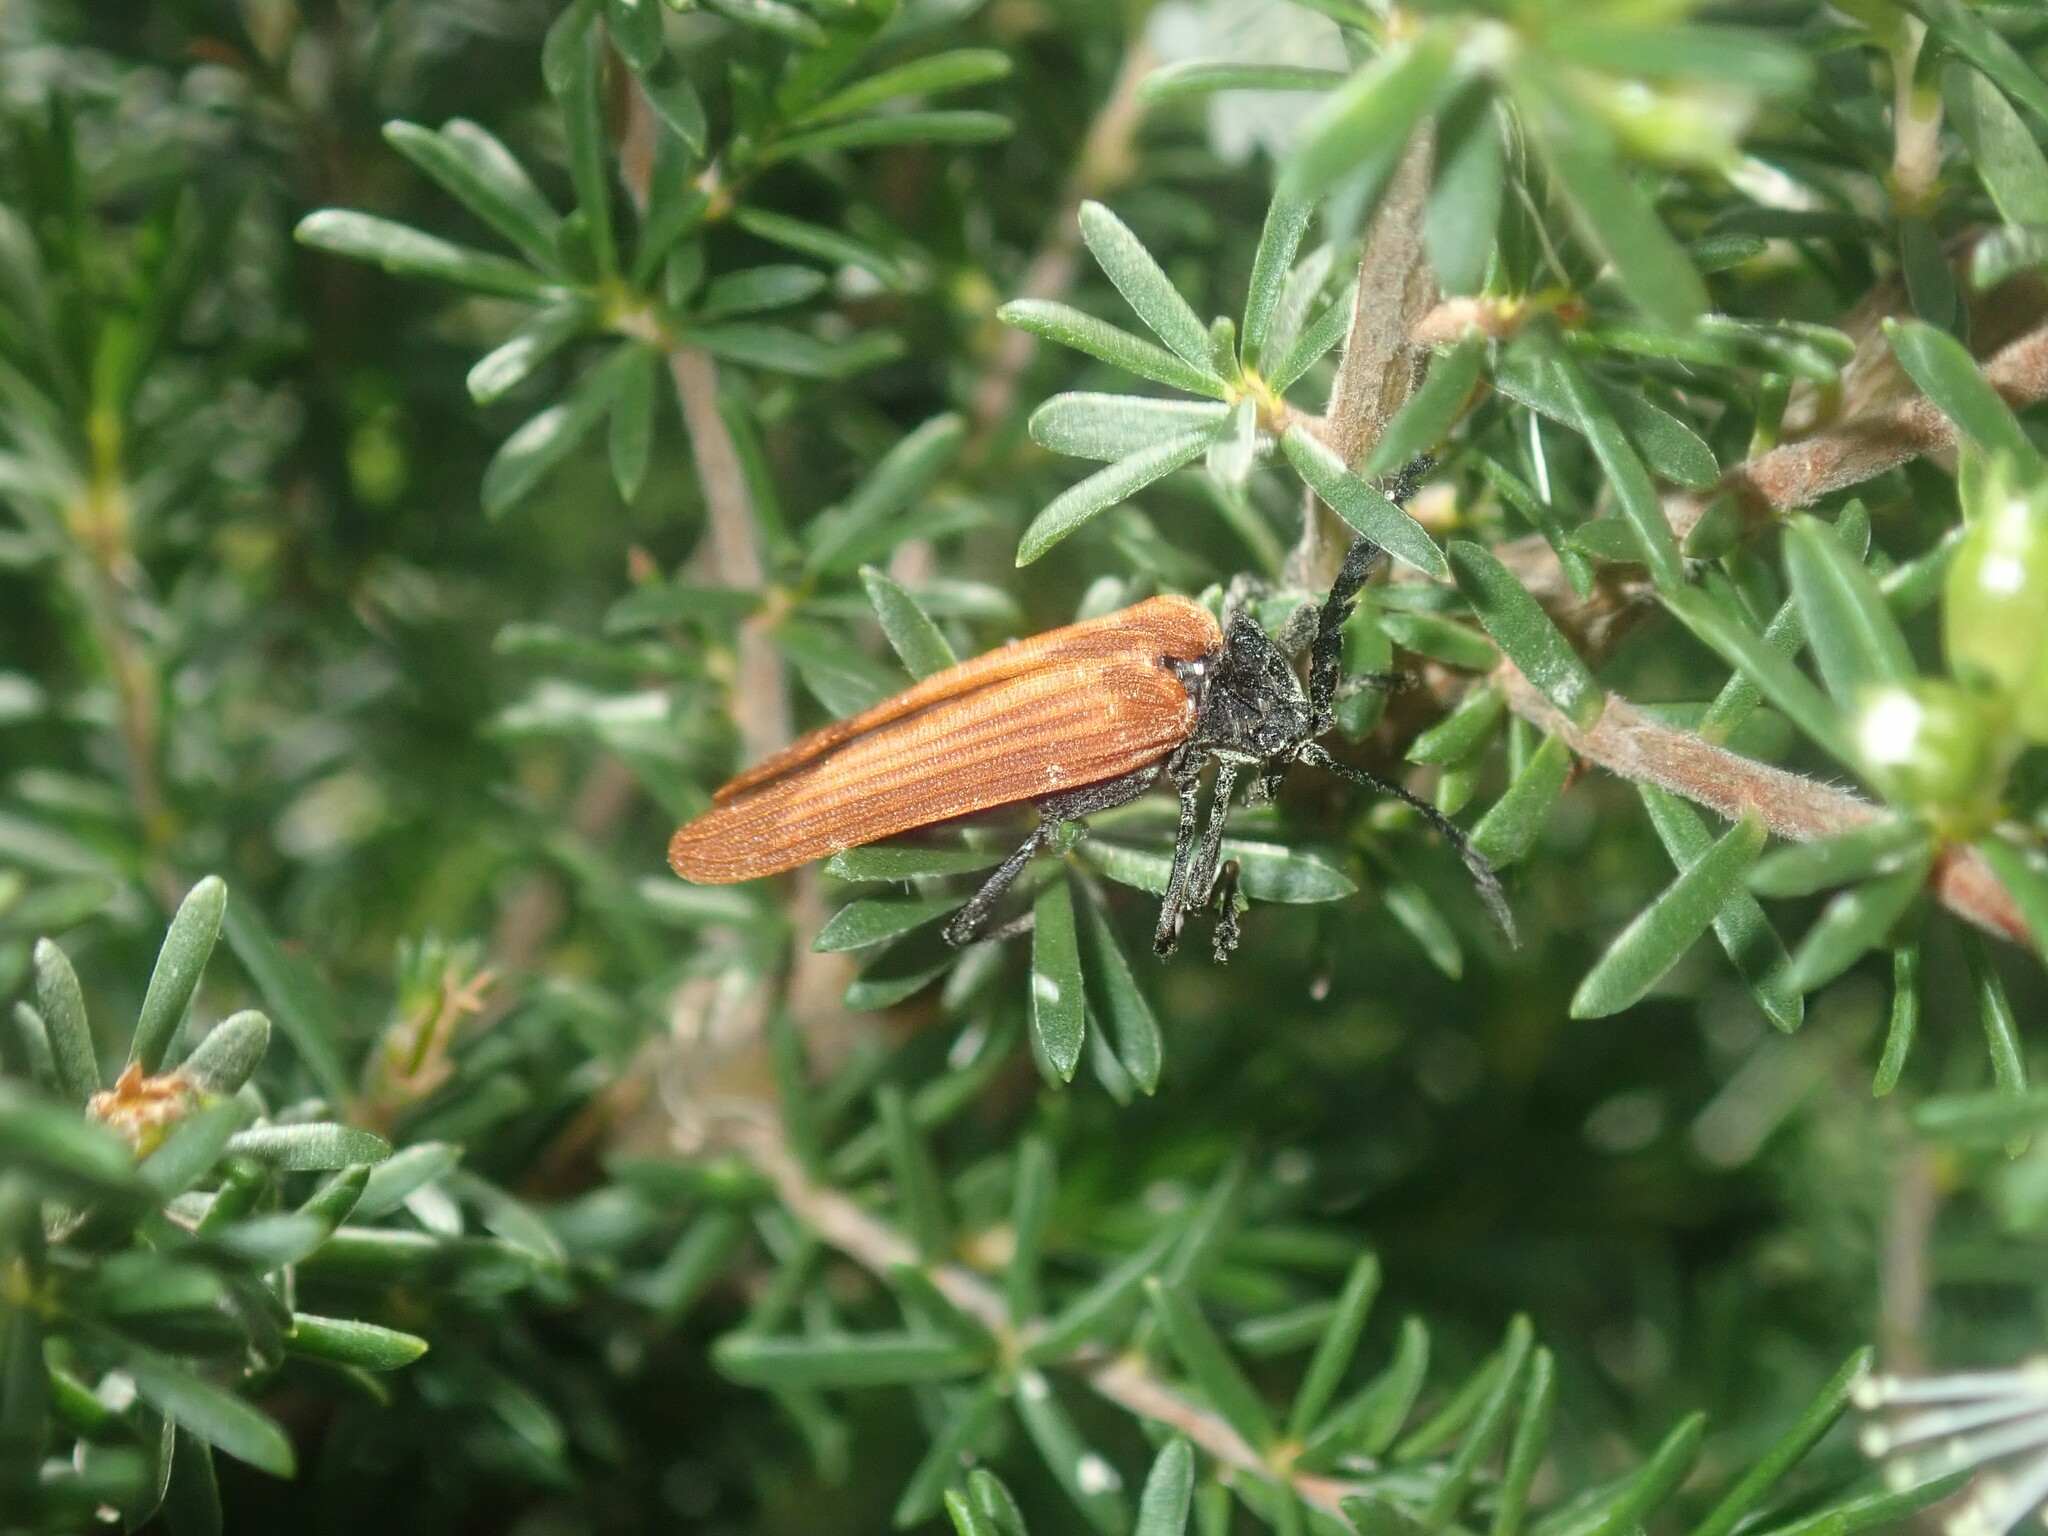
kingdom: Animalia
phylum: Arthropoda
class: Insecta
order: Coleoptera
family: Lycidae
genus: Porrostoma
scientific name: Porrostoma rhipidium
